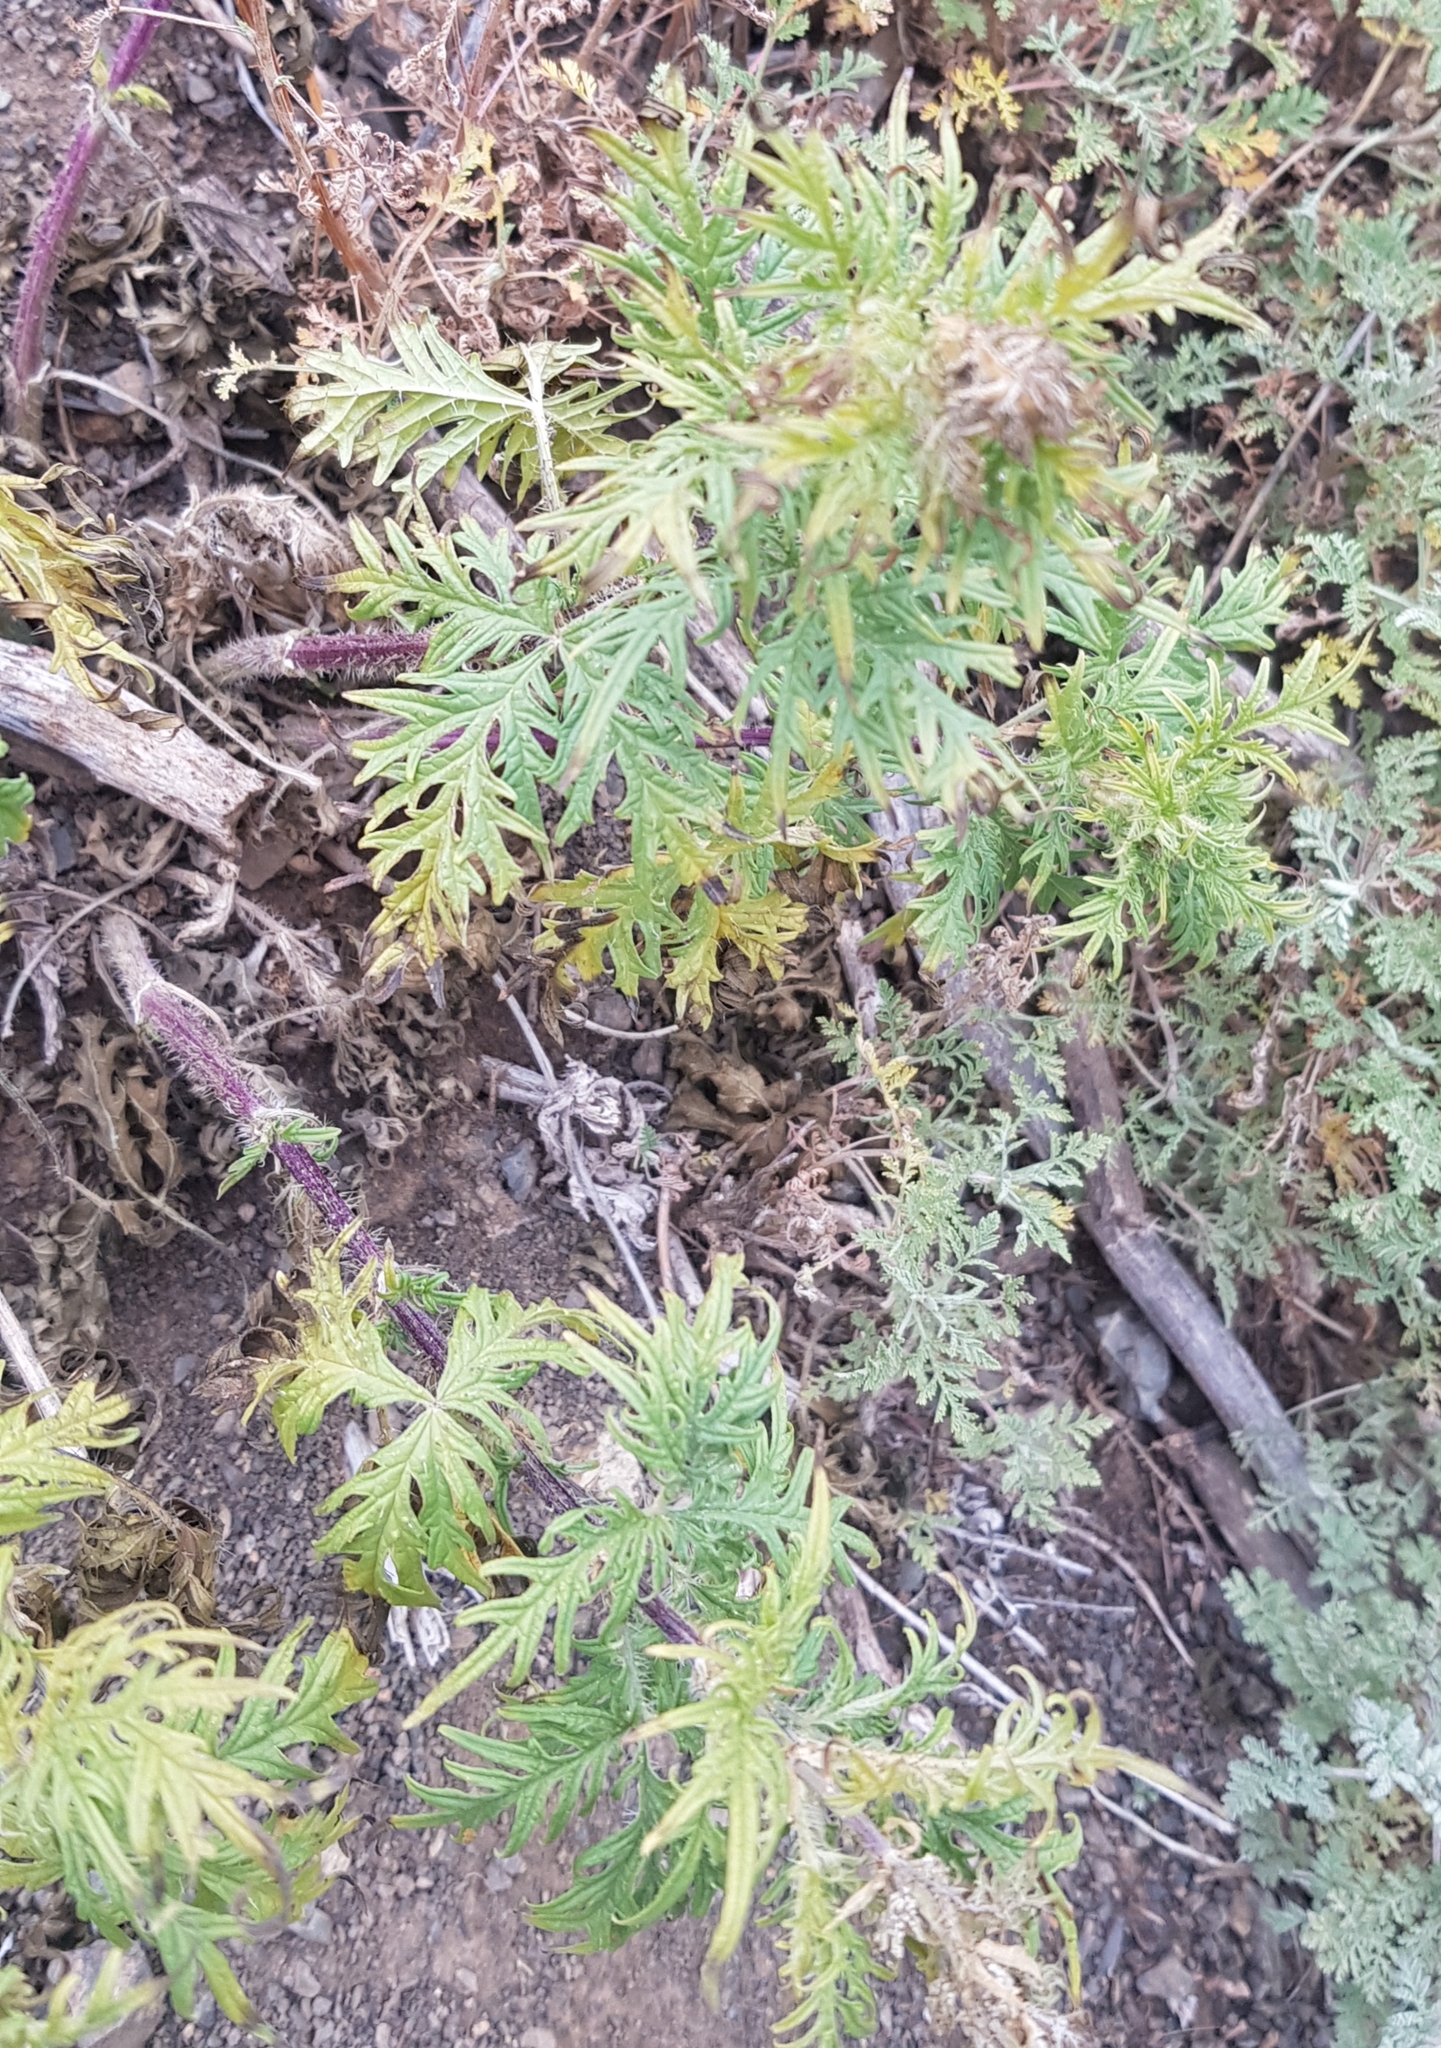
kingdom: Plantae
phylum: Tracheophyta
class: Magnoliopsida
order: Rosales
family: Urticaceae
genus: Urtica
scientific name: Urtica cannabina
